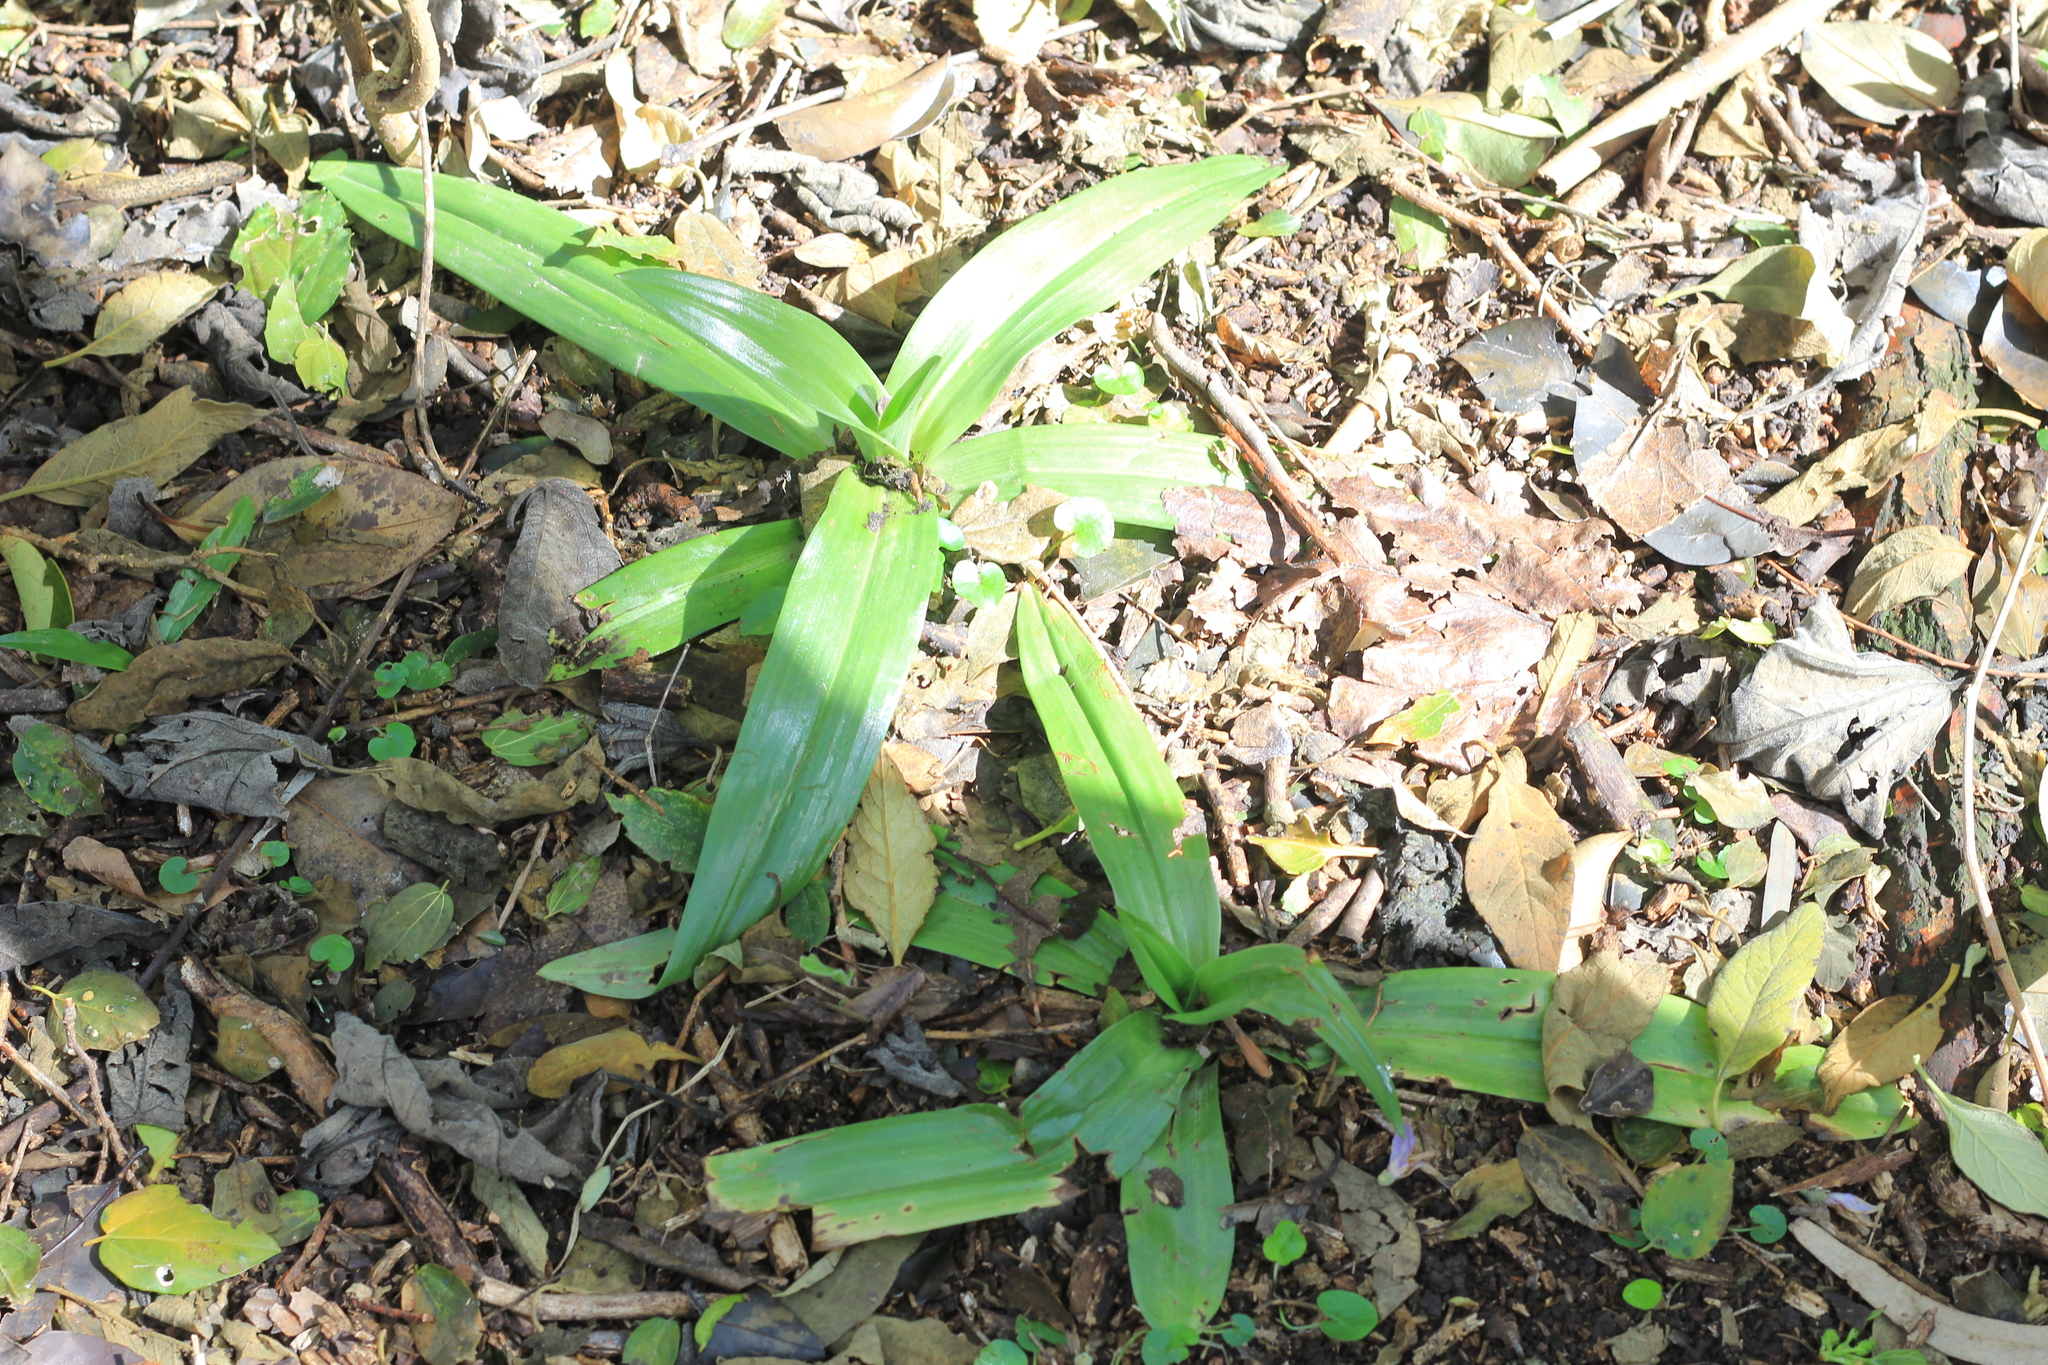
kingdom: Plantae
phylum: Tracheophyta
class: Liliopsida
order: Asparagales
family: Orchidaceae
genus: Chloraea
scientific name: Chloraea membranacea
